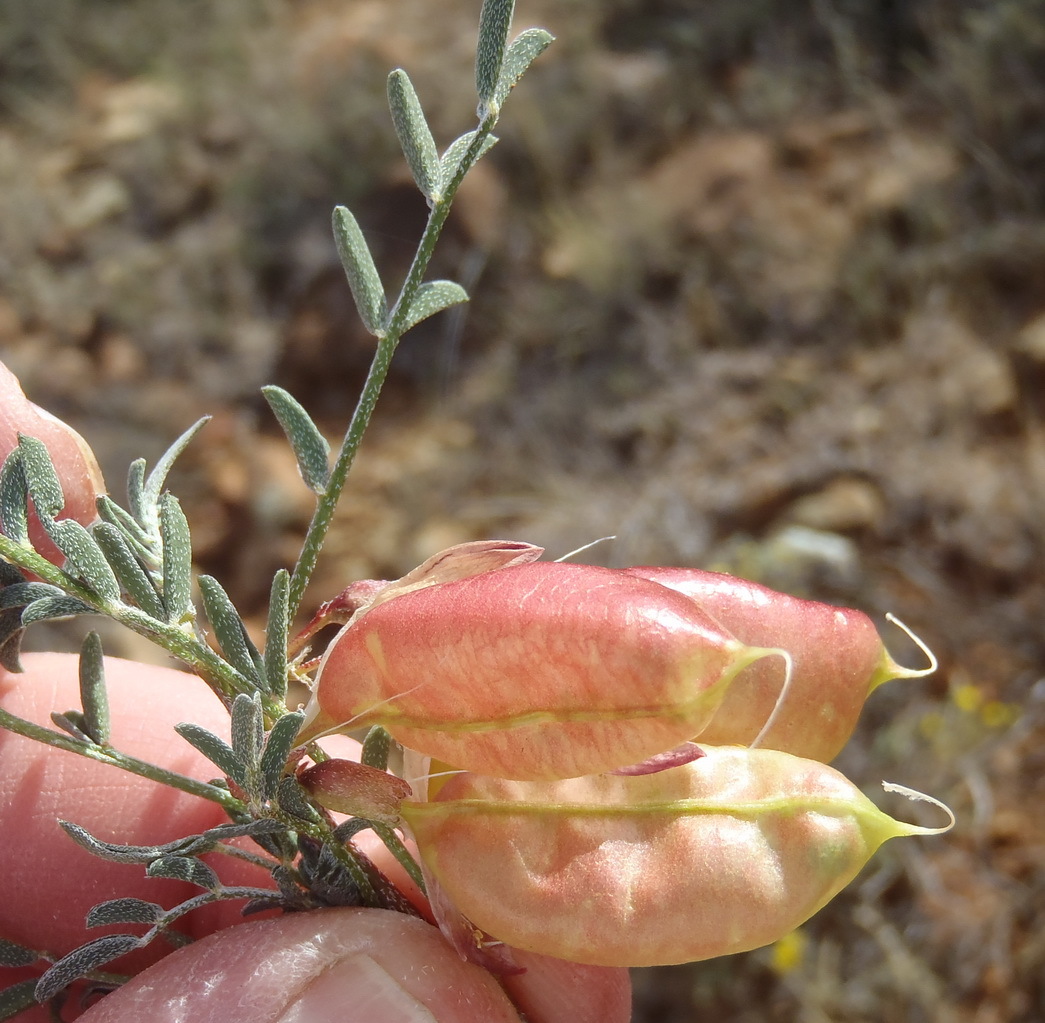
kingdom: Plantae
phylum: Tracheophyta
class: Magnoliopsida
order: Fabales
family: Fabaceae
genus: Lessertia
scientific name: Lessertia frutescens
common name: Balloon-pea
